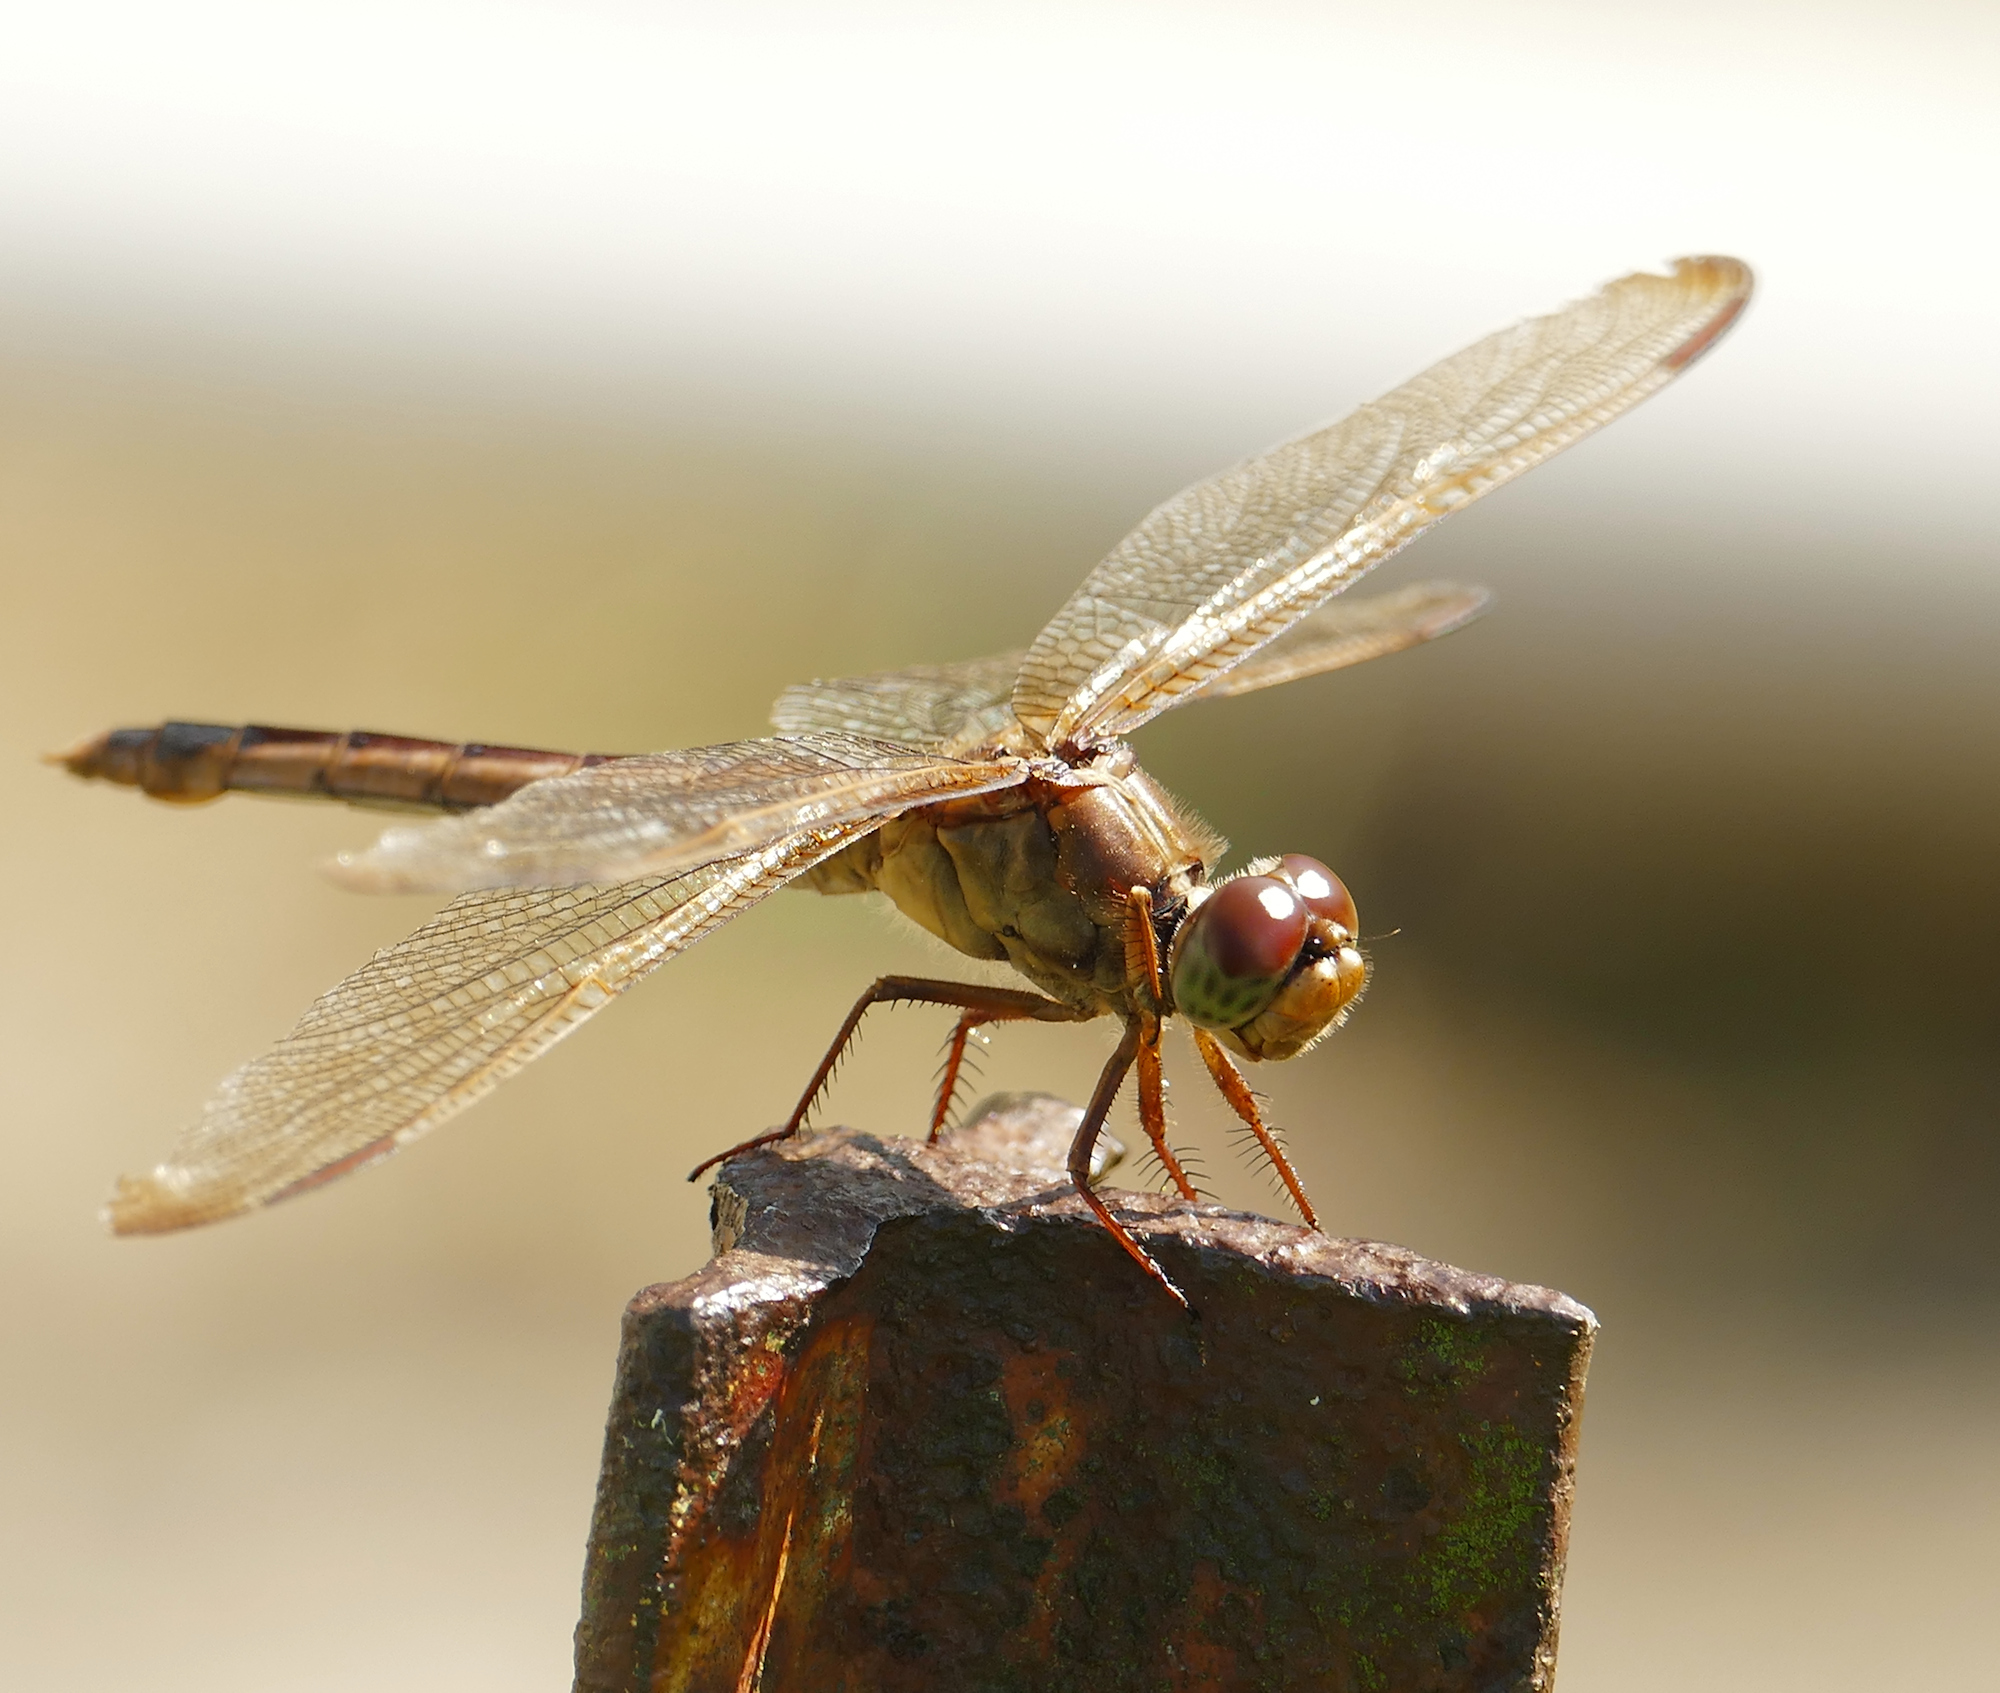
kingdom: Animalia
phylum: Arthropoda
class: Insecta
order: Odonata
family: Libellulidae
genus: Libellula
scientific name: Libellula needhami
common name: Needham's skimmer
